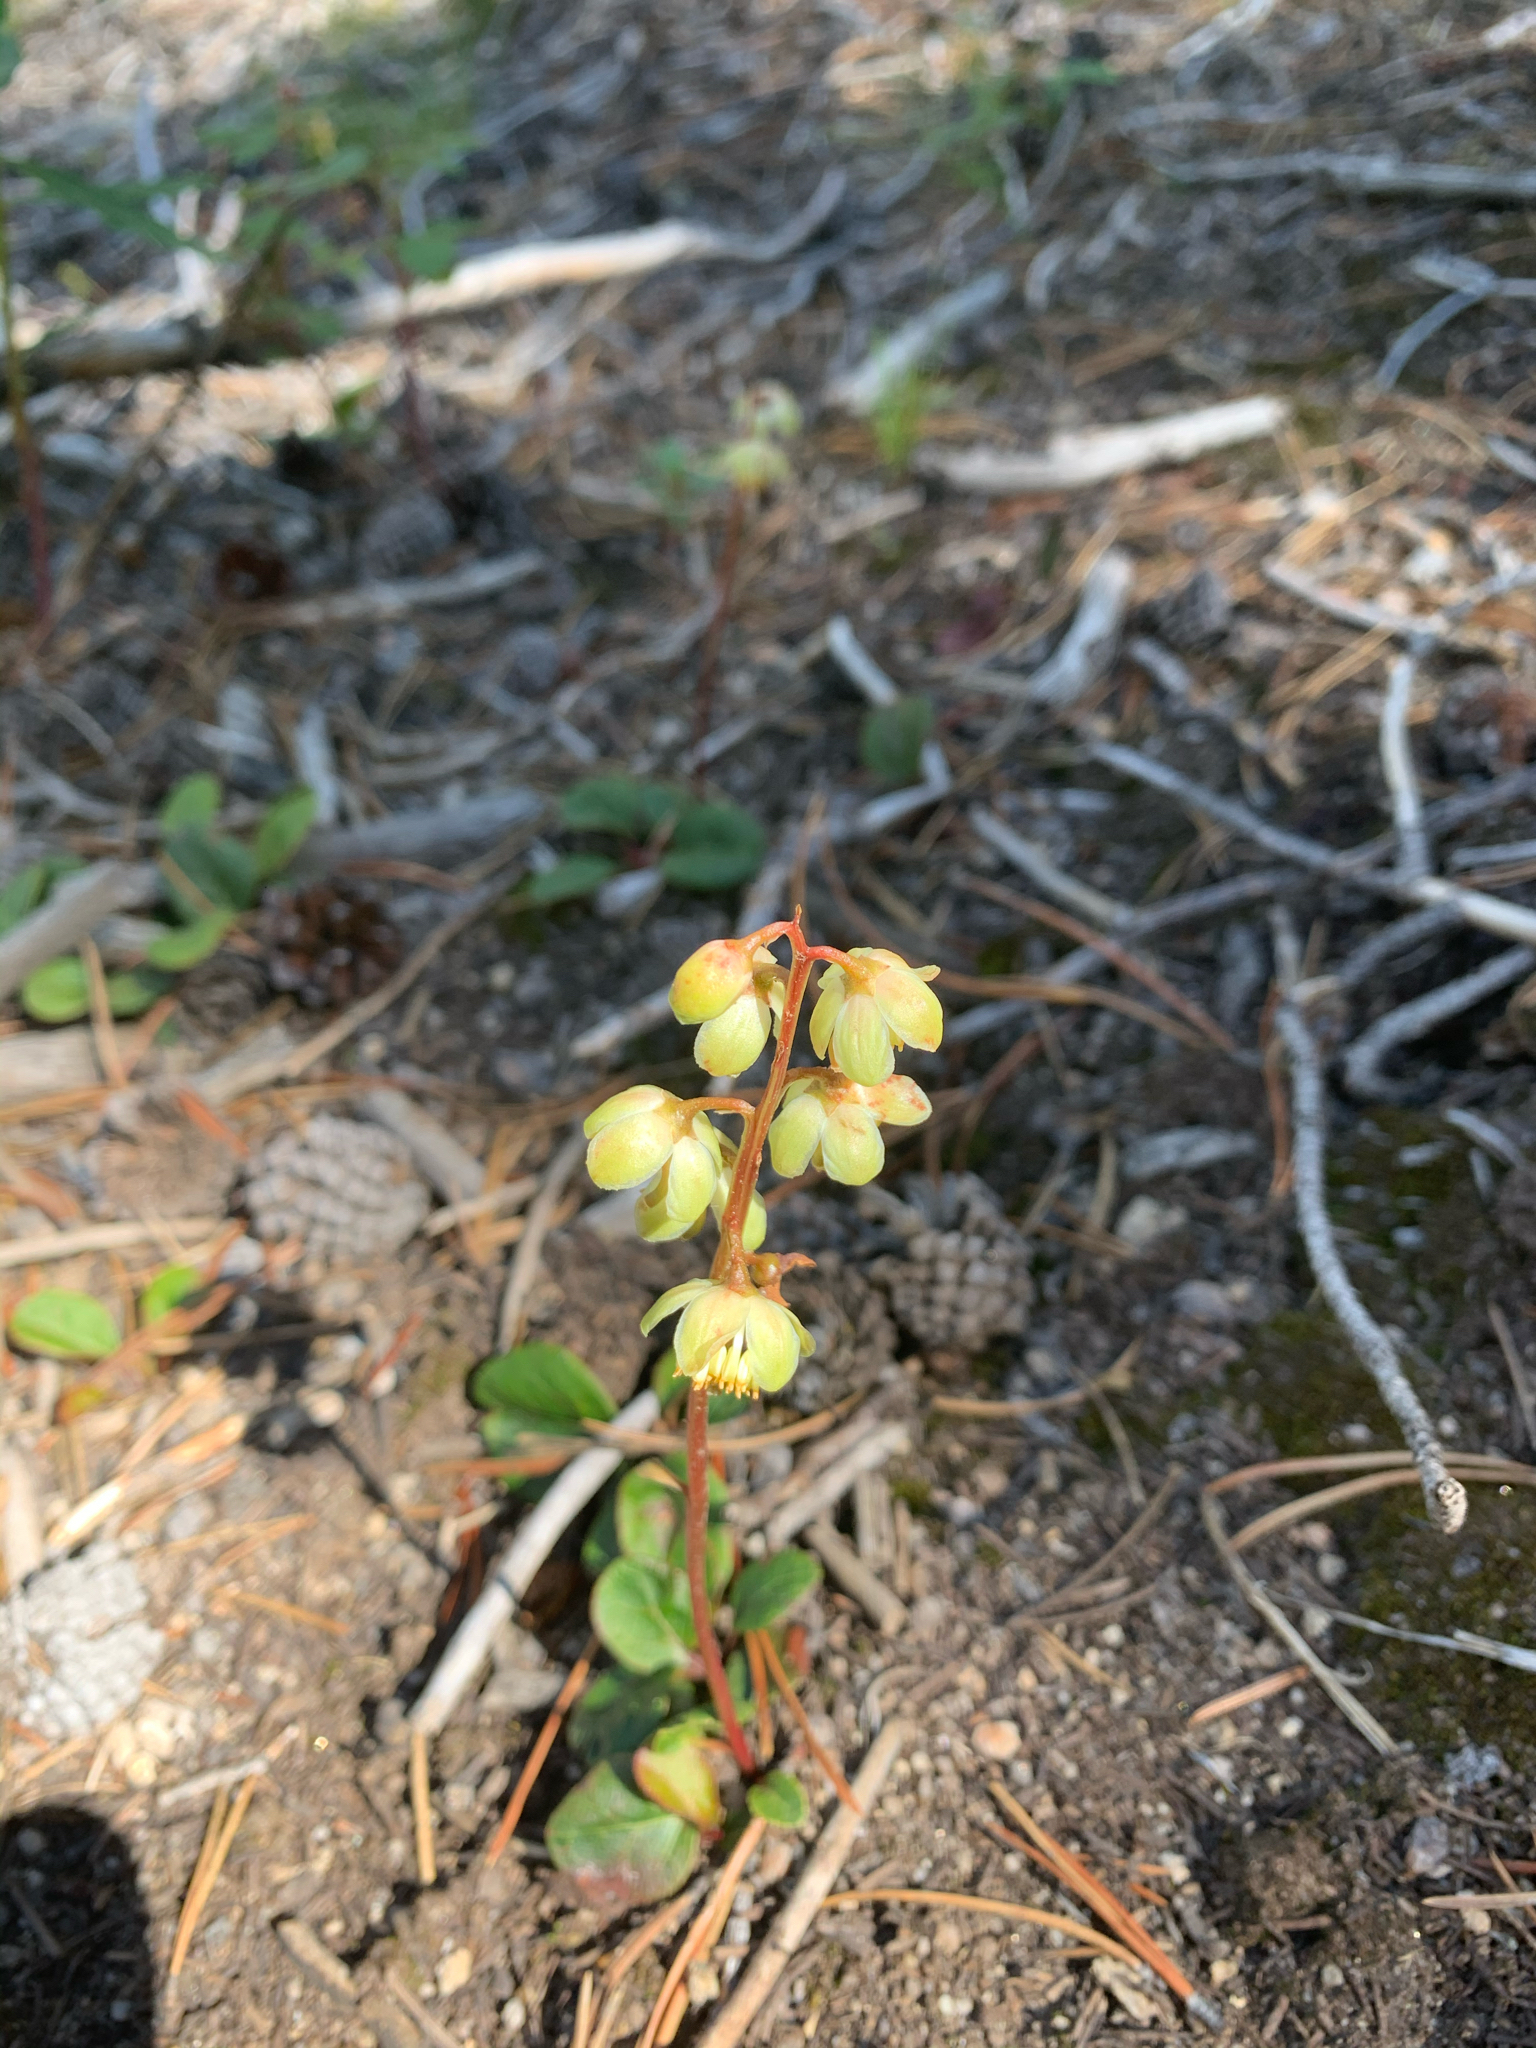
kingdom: Plantae
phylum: Tracheophyta
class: Magnoliopsida
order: Ericales
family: Ericaceae
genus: Pyrola
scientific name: Pyrola chlorantha
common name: Green wintergreen
